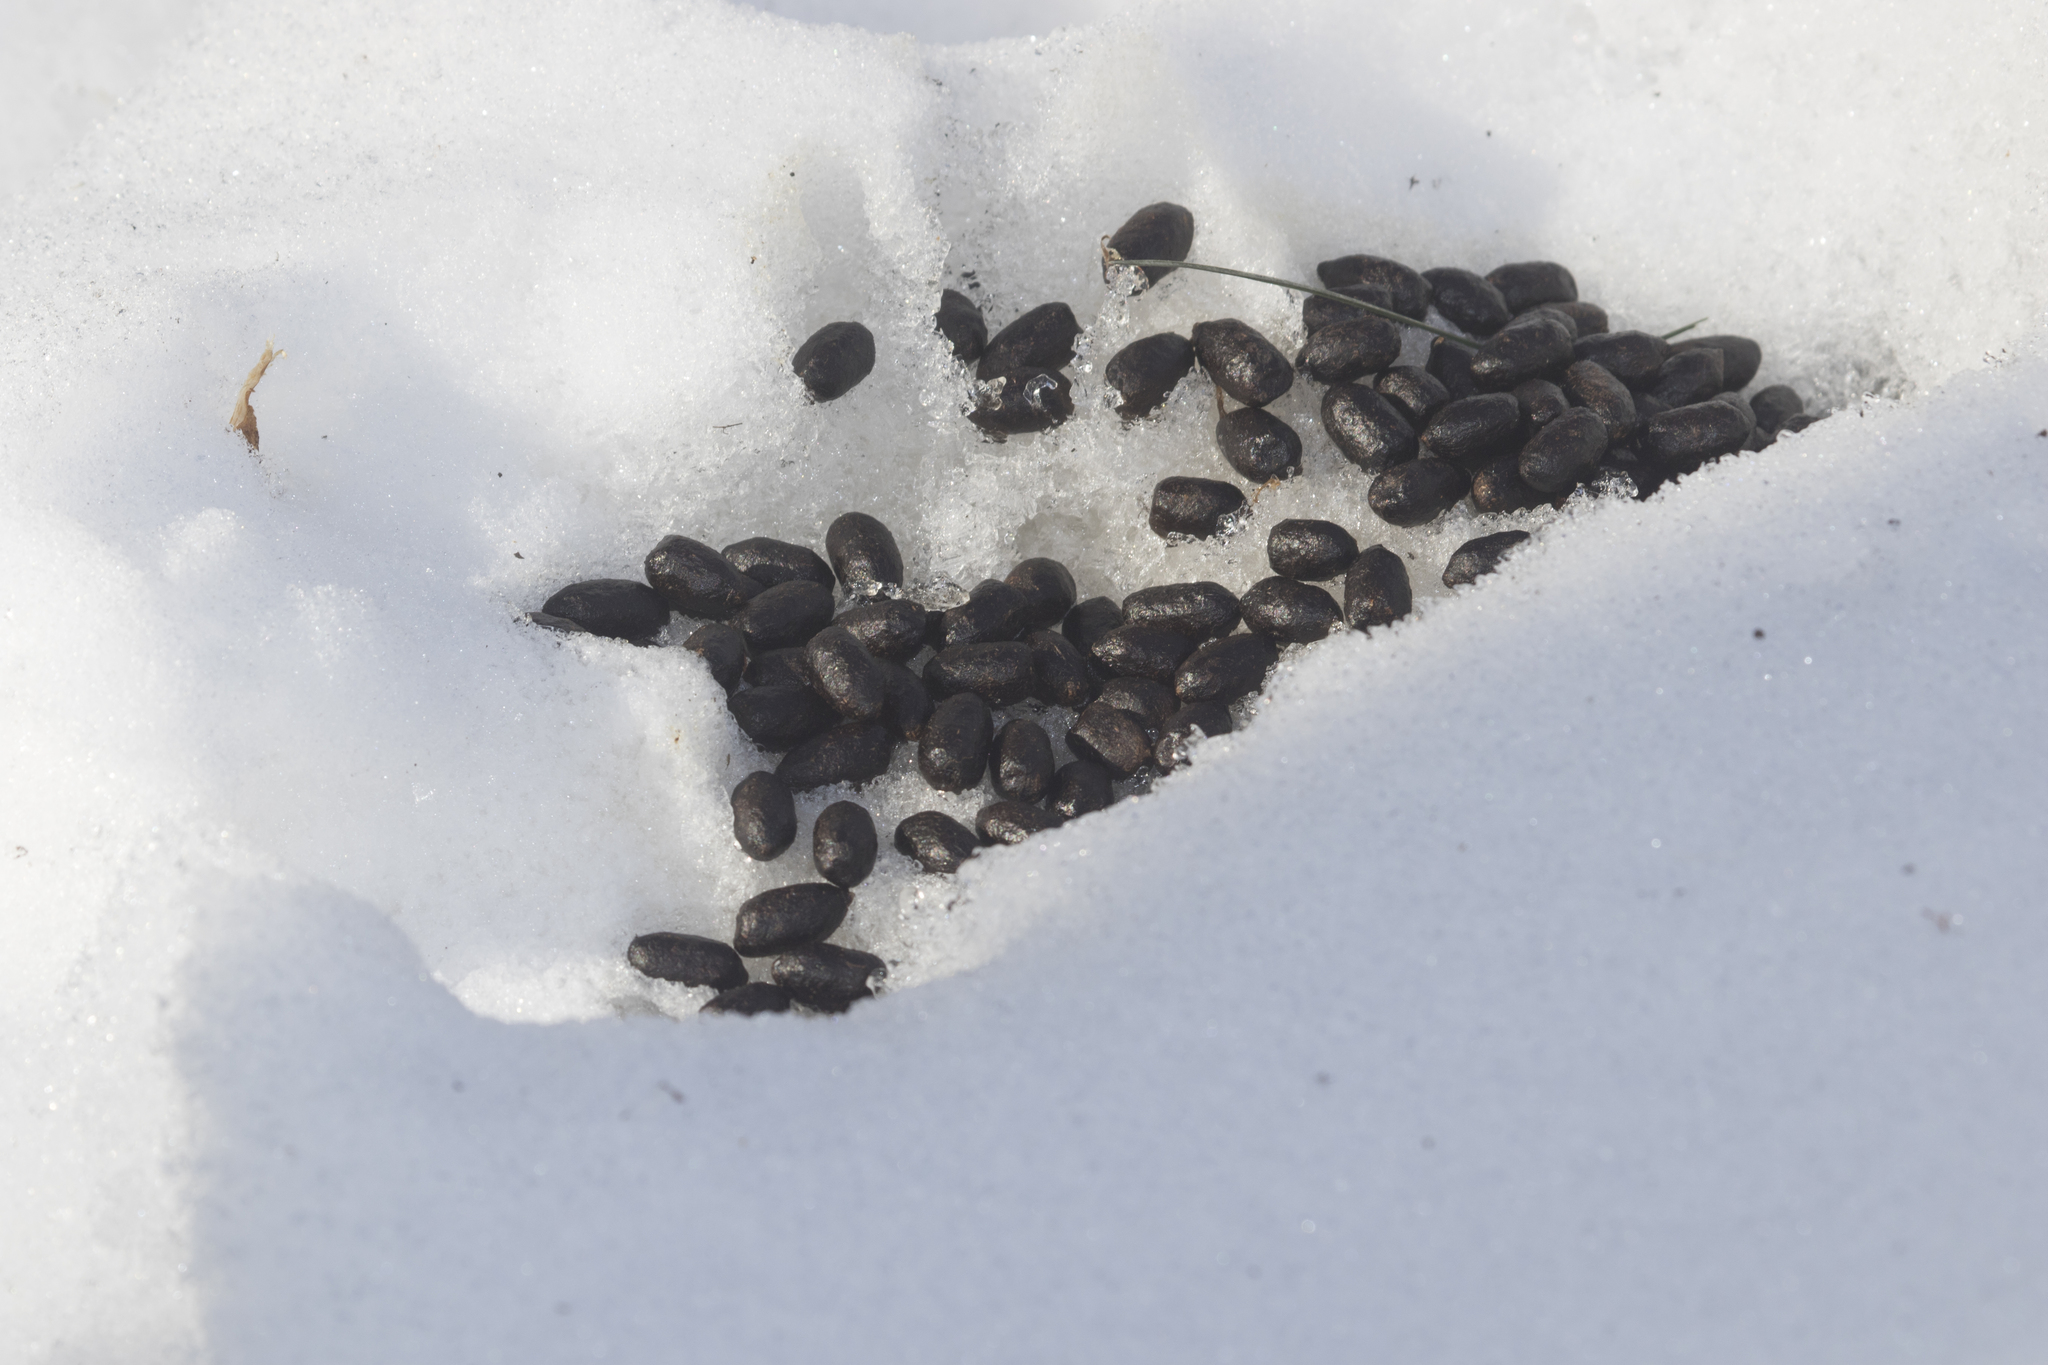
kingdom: Animalia
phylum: Chordata
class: Mammalia
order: Artiodactyla
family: Cervidae
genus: Capreolus
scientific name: Capreolus pygargus
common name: Siberian roe
